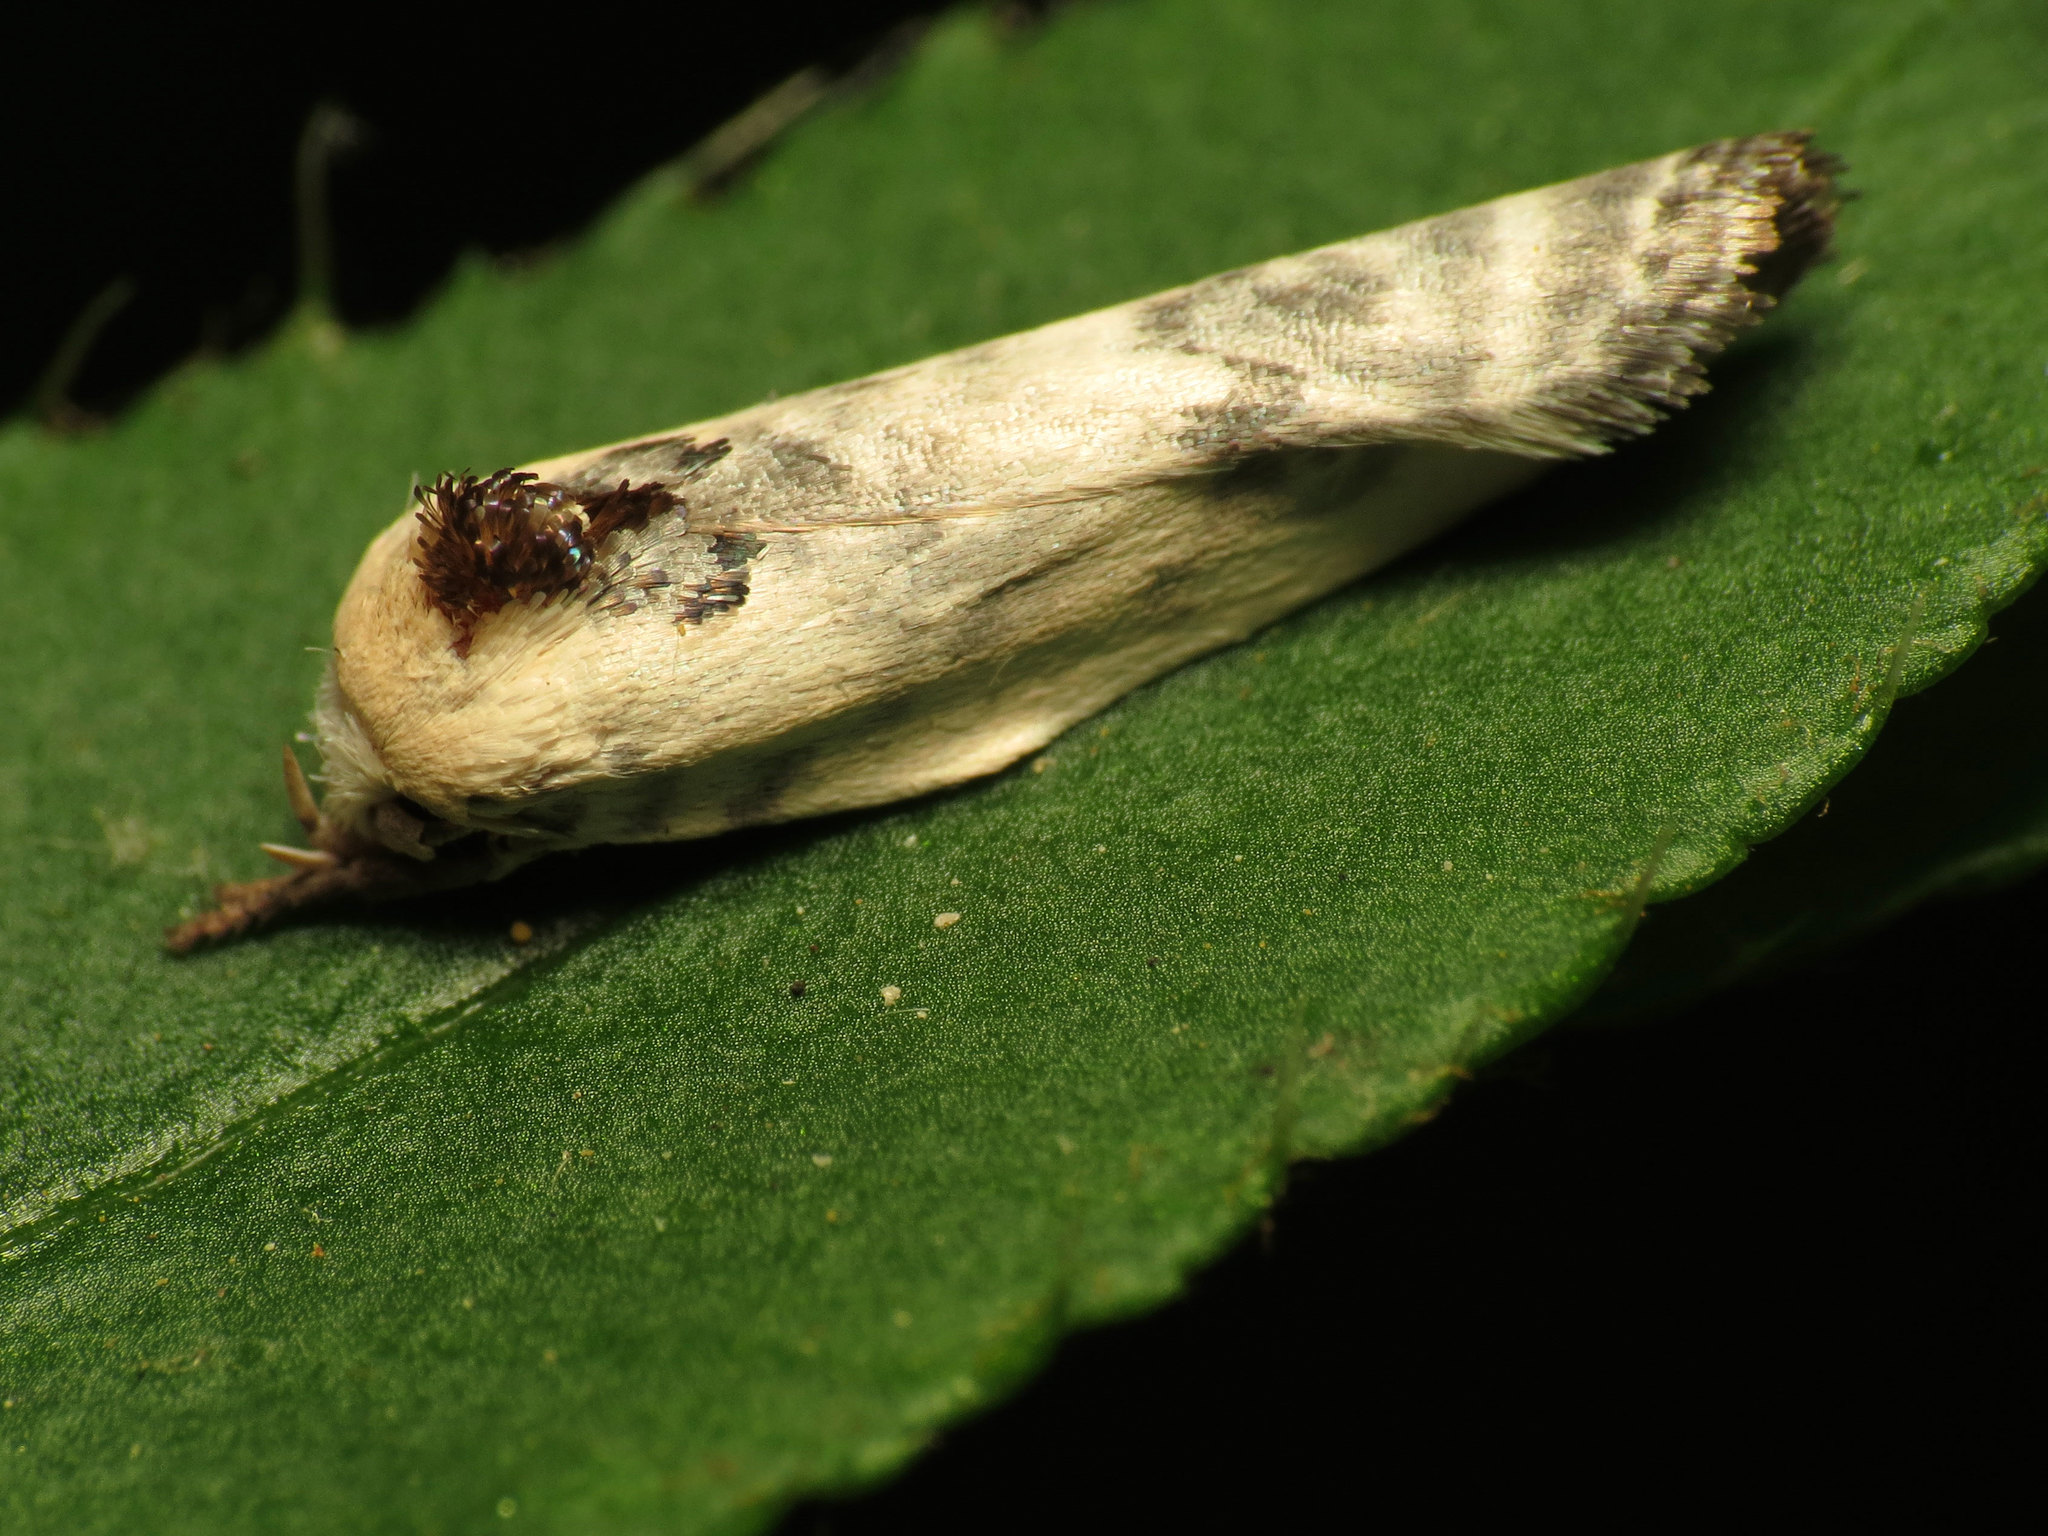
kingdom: Animalia
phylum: Arthropoda
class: Insecta
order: Lepidoptera
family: Depressariidae
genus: Antaeotricha
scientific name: Antaeotricha schlaegeri
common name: Schlaeger's fruitworm moth
